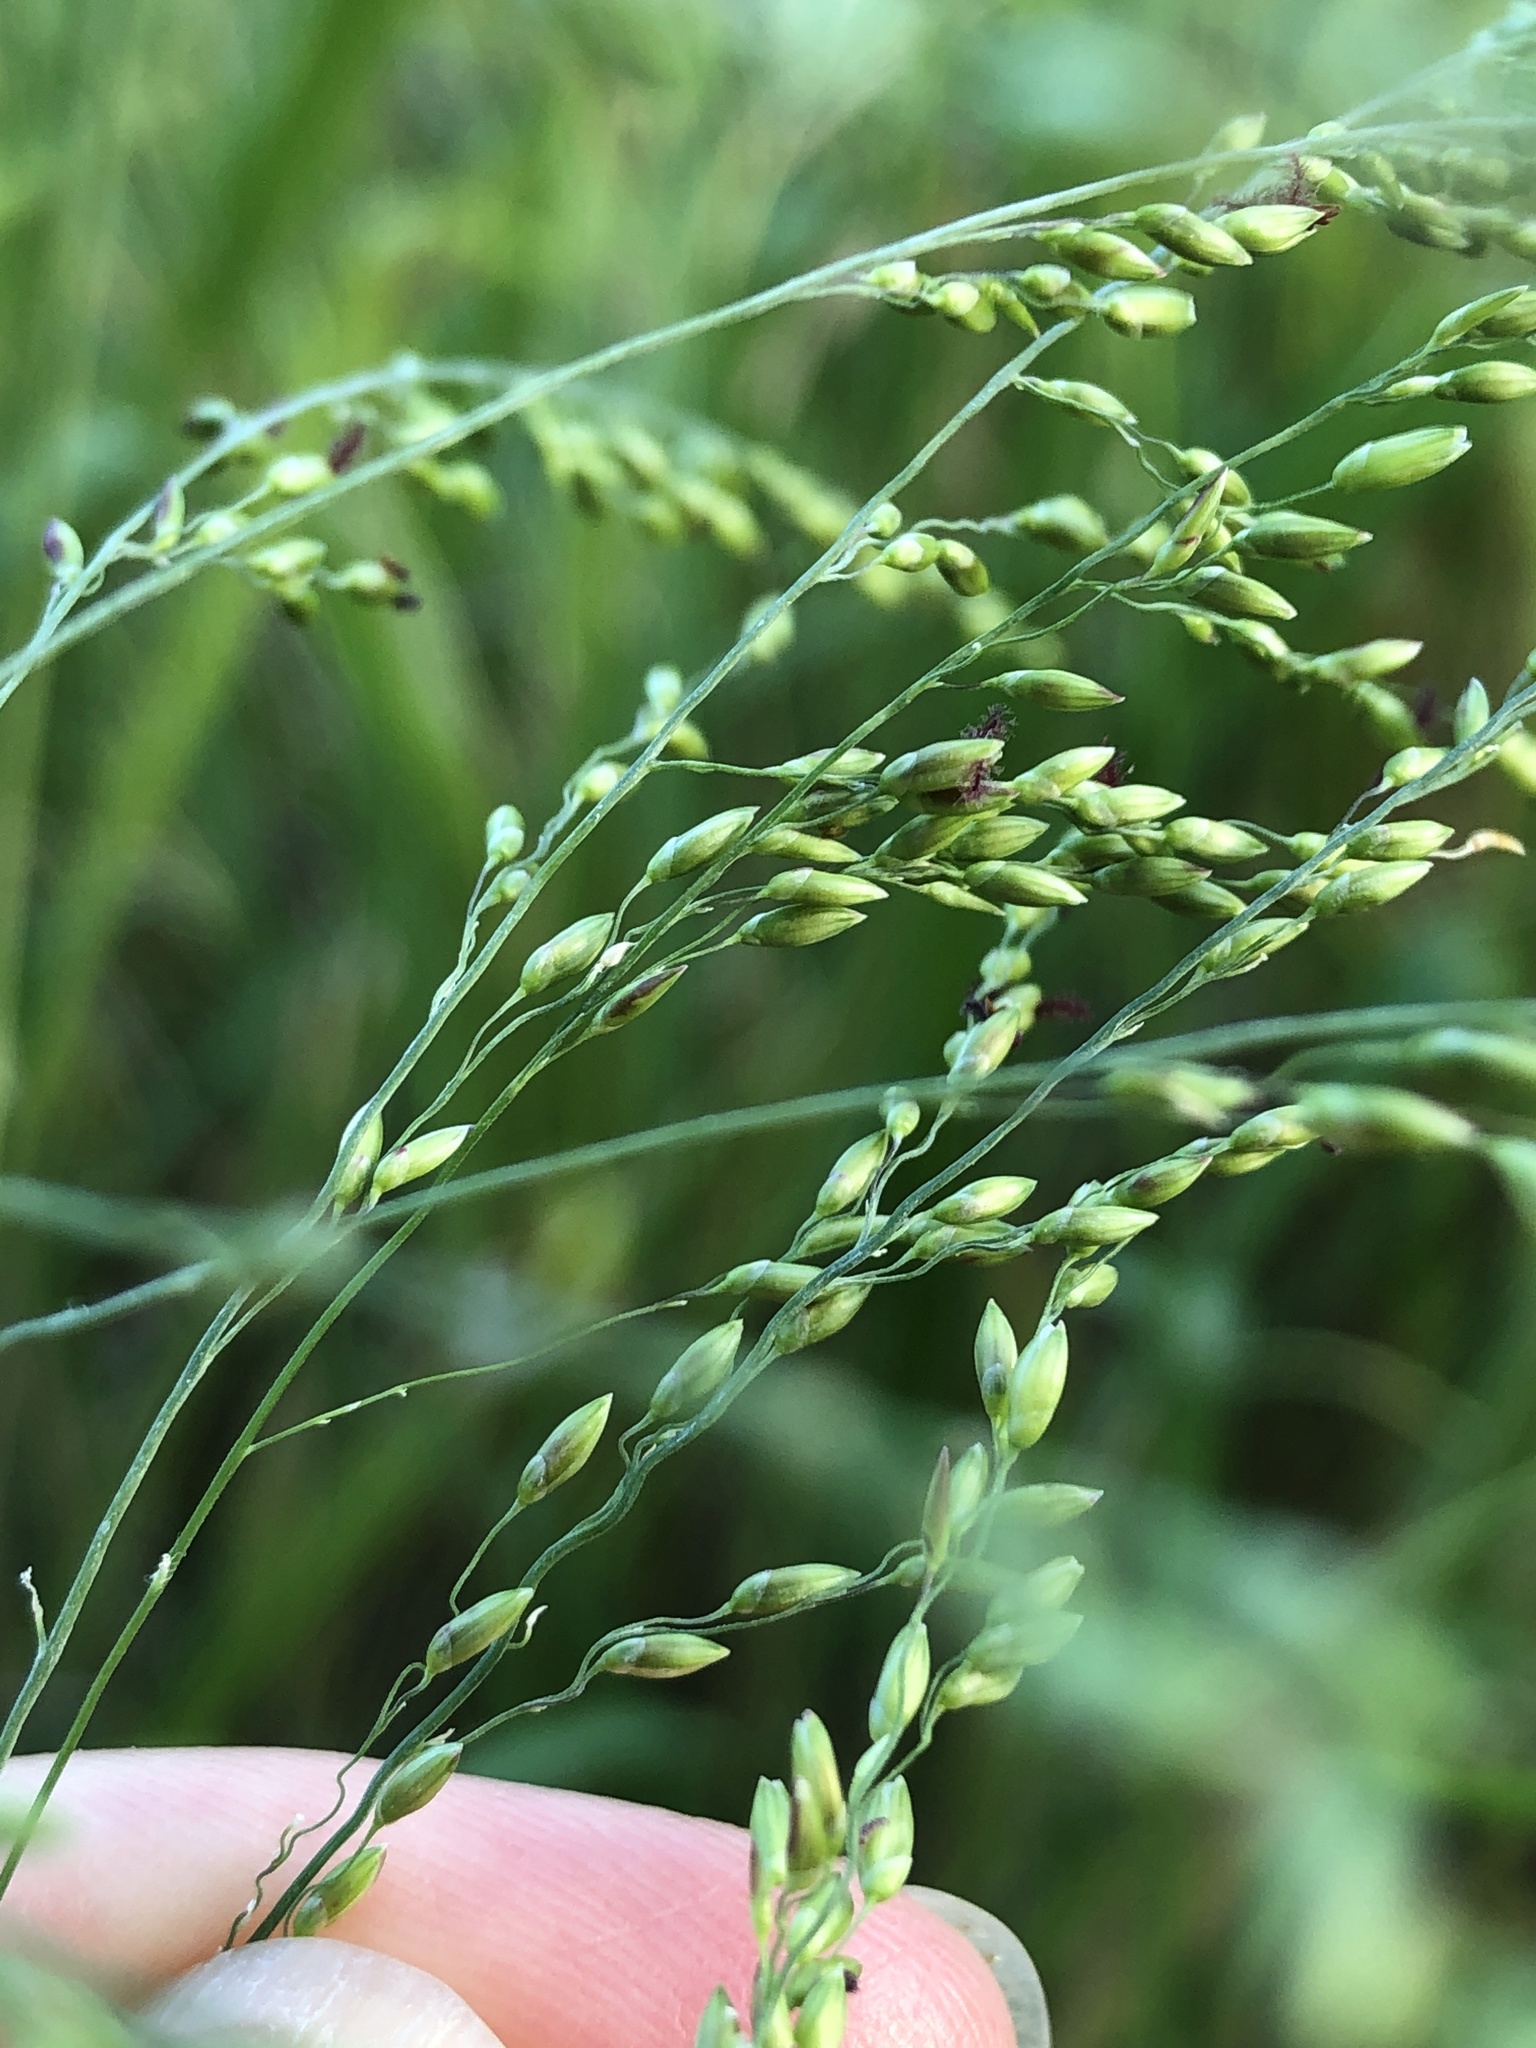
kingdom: Plantae
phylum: Tracheophyta
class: Liliopsida
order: Poales
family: Poaceae
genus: Megathyrsus
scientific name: Megathyrsus maximus
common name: Guineagrass
